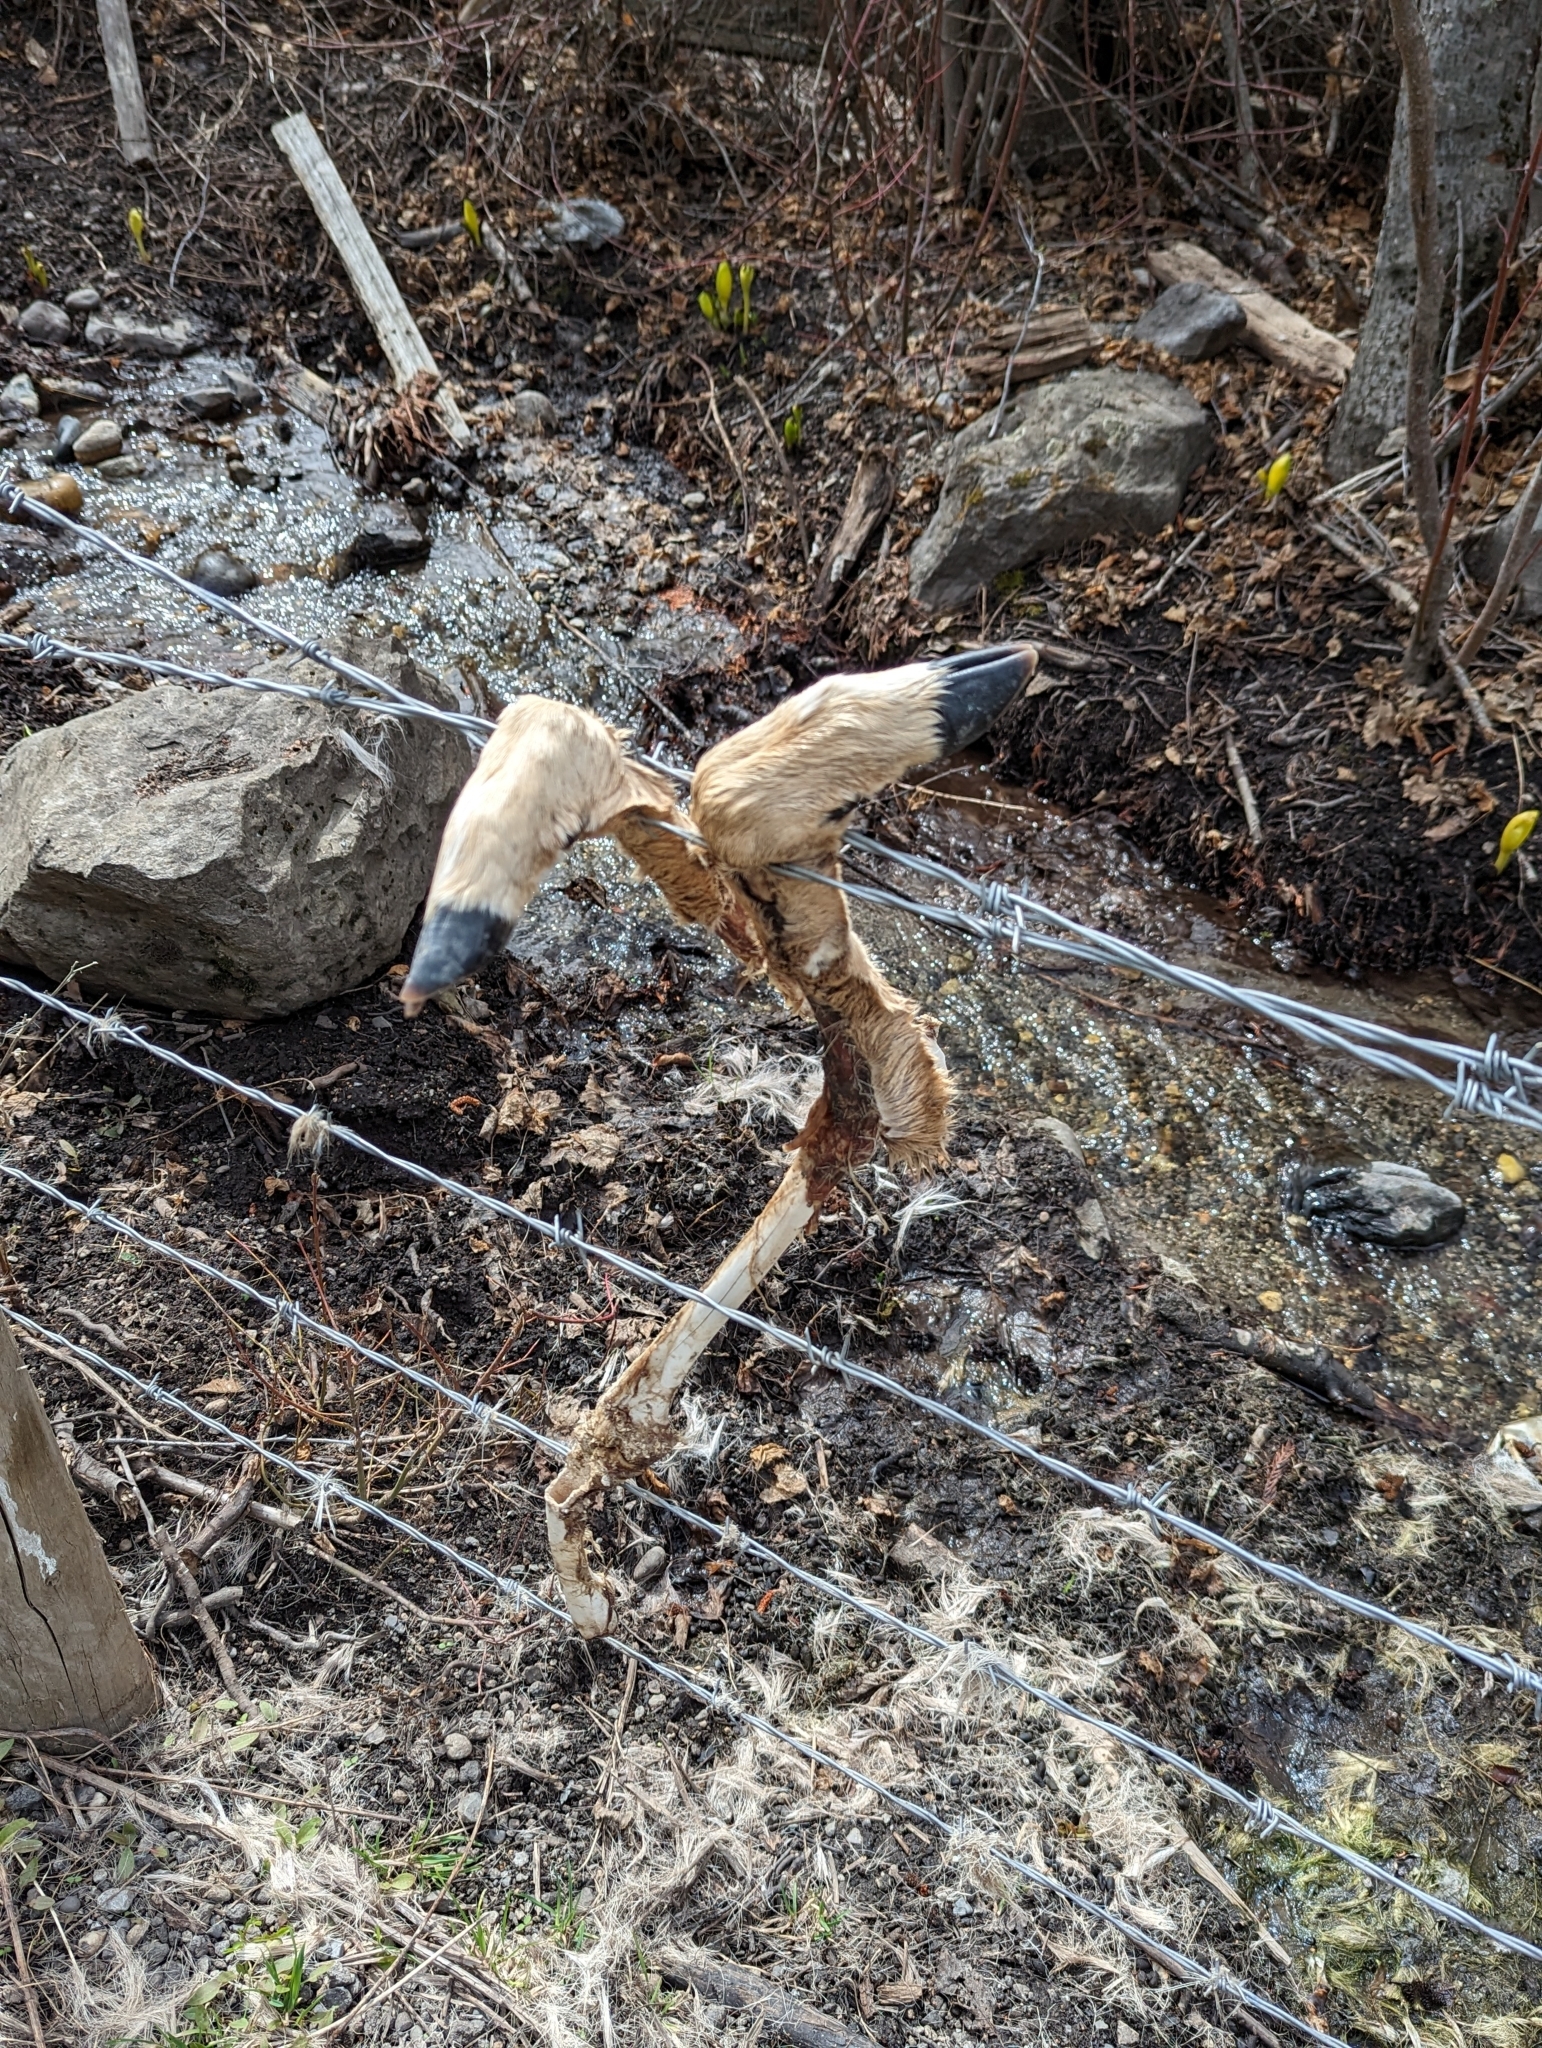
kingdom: Animalia
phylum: Chordata
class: Mammalia
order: Artiodactyla
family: Cervidae
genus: Odocoileus
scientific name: Odocoileus virginianus
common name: White-tailed deer
